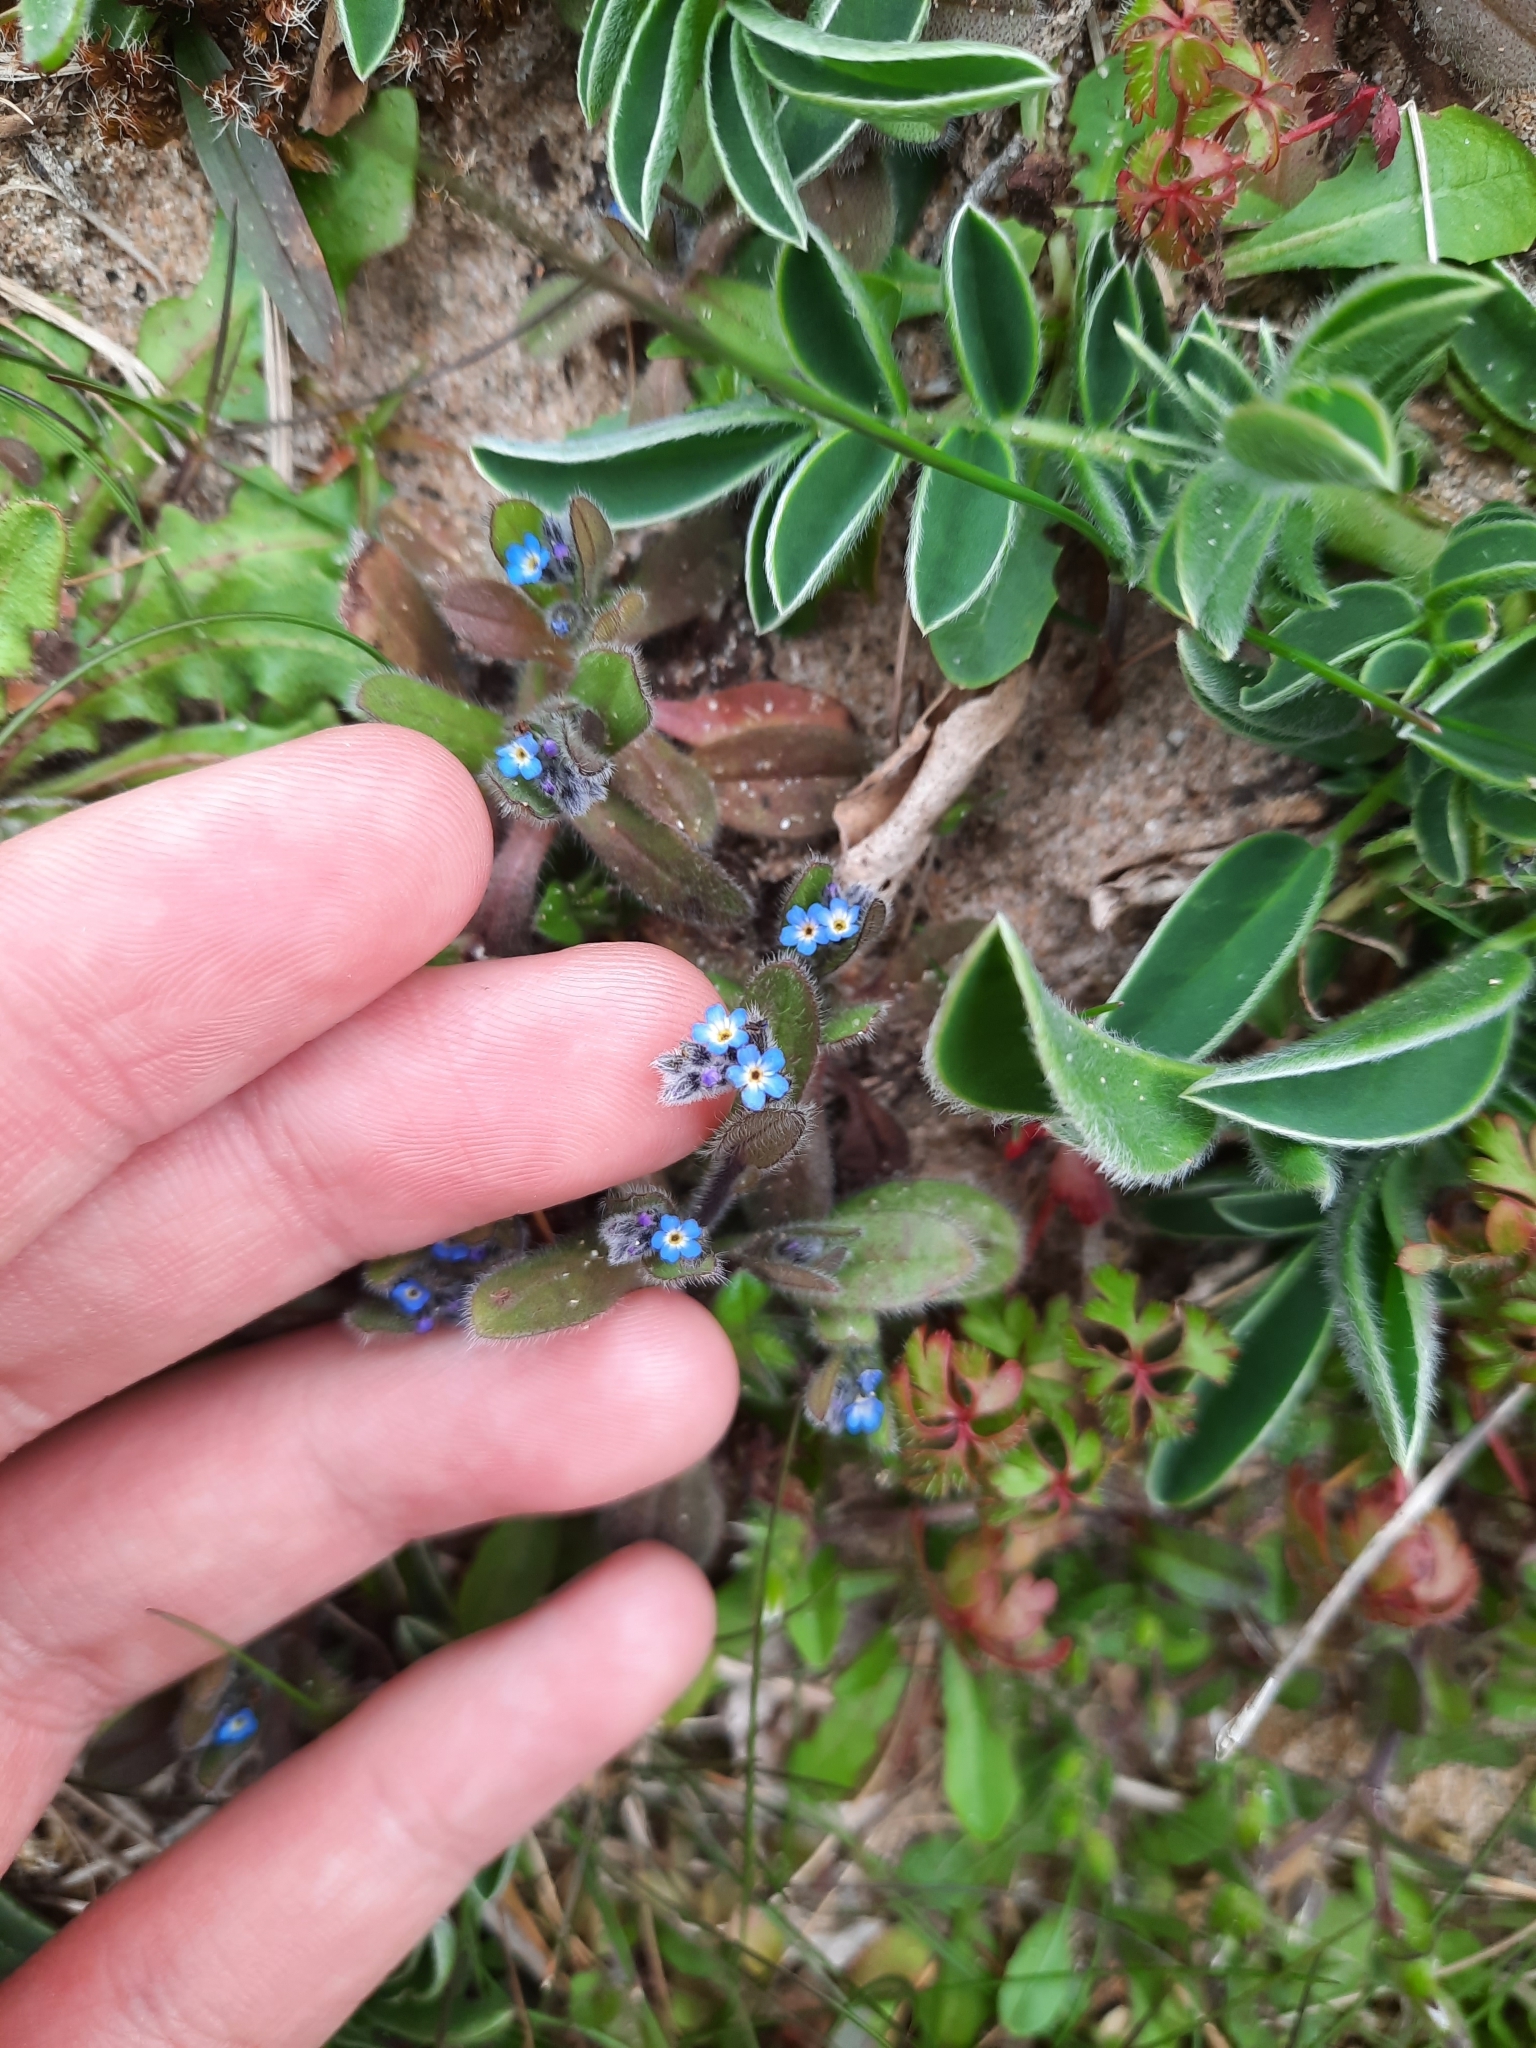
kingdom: Plantae
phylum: Tracheophyta
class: Magnoliopsida
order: Boraginales
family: Boraginaceae
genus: Myosotis
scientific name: Myosotis ramosissima
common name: Early forget-me-not
